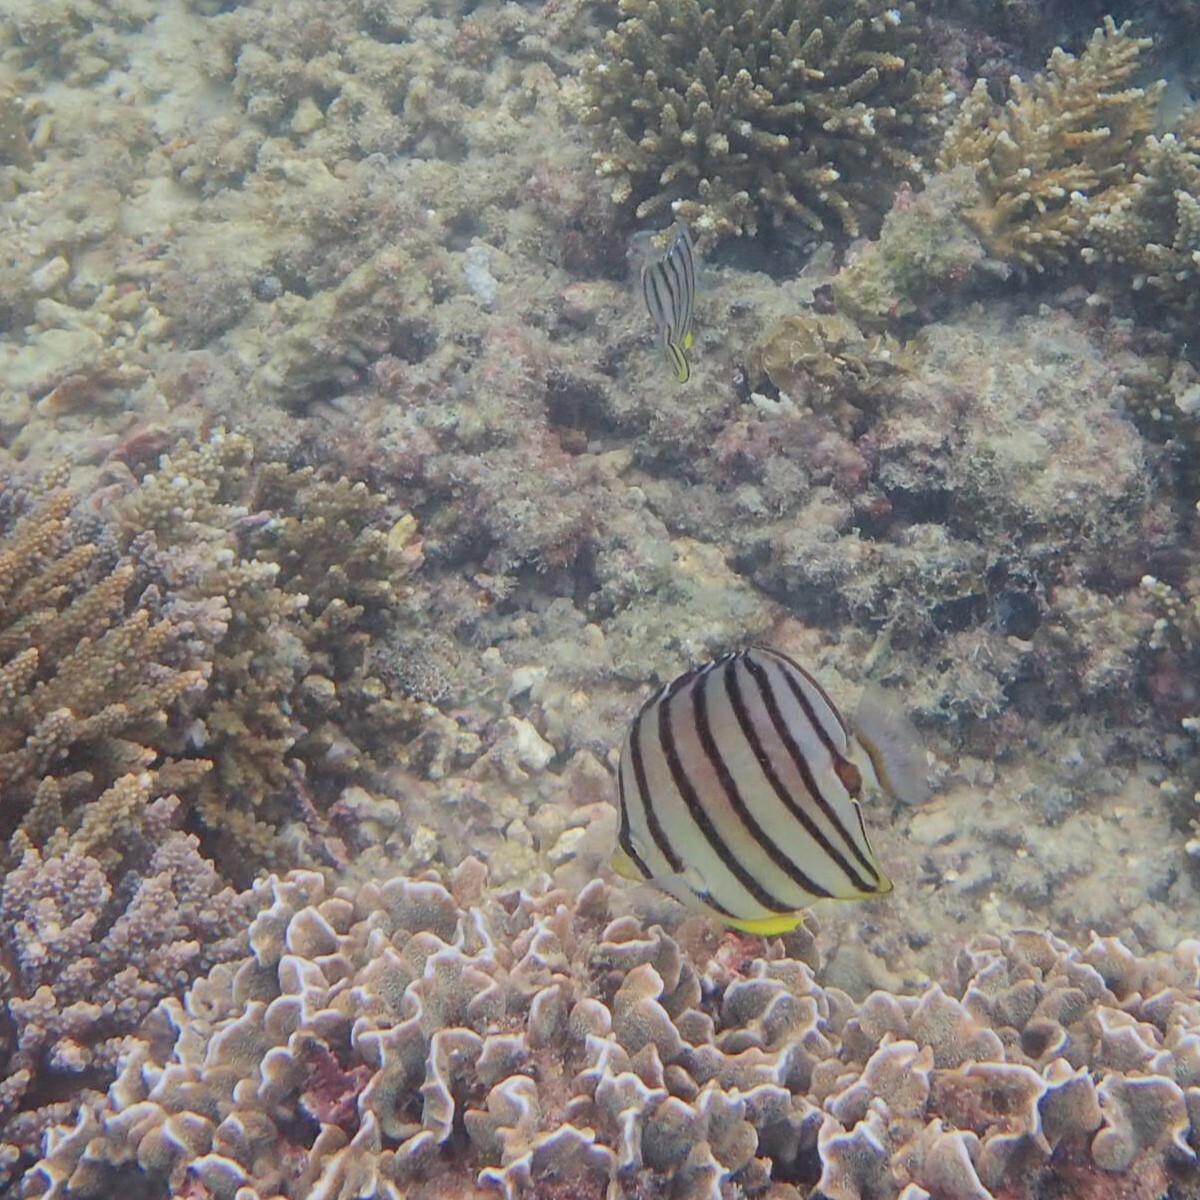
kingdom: Animalia
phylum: Chordata
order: Perciformes
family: Chaetodontidae
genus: Chaetodon
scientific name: Chaetodon octofasciatus
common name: Eightband butterflyfish
